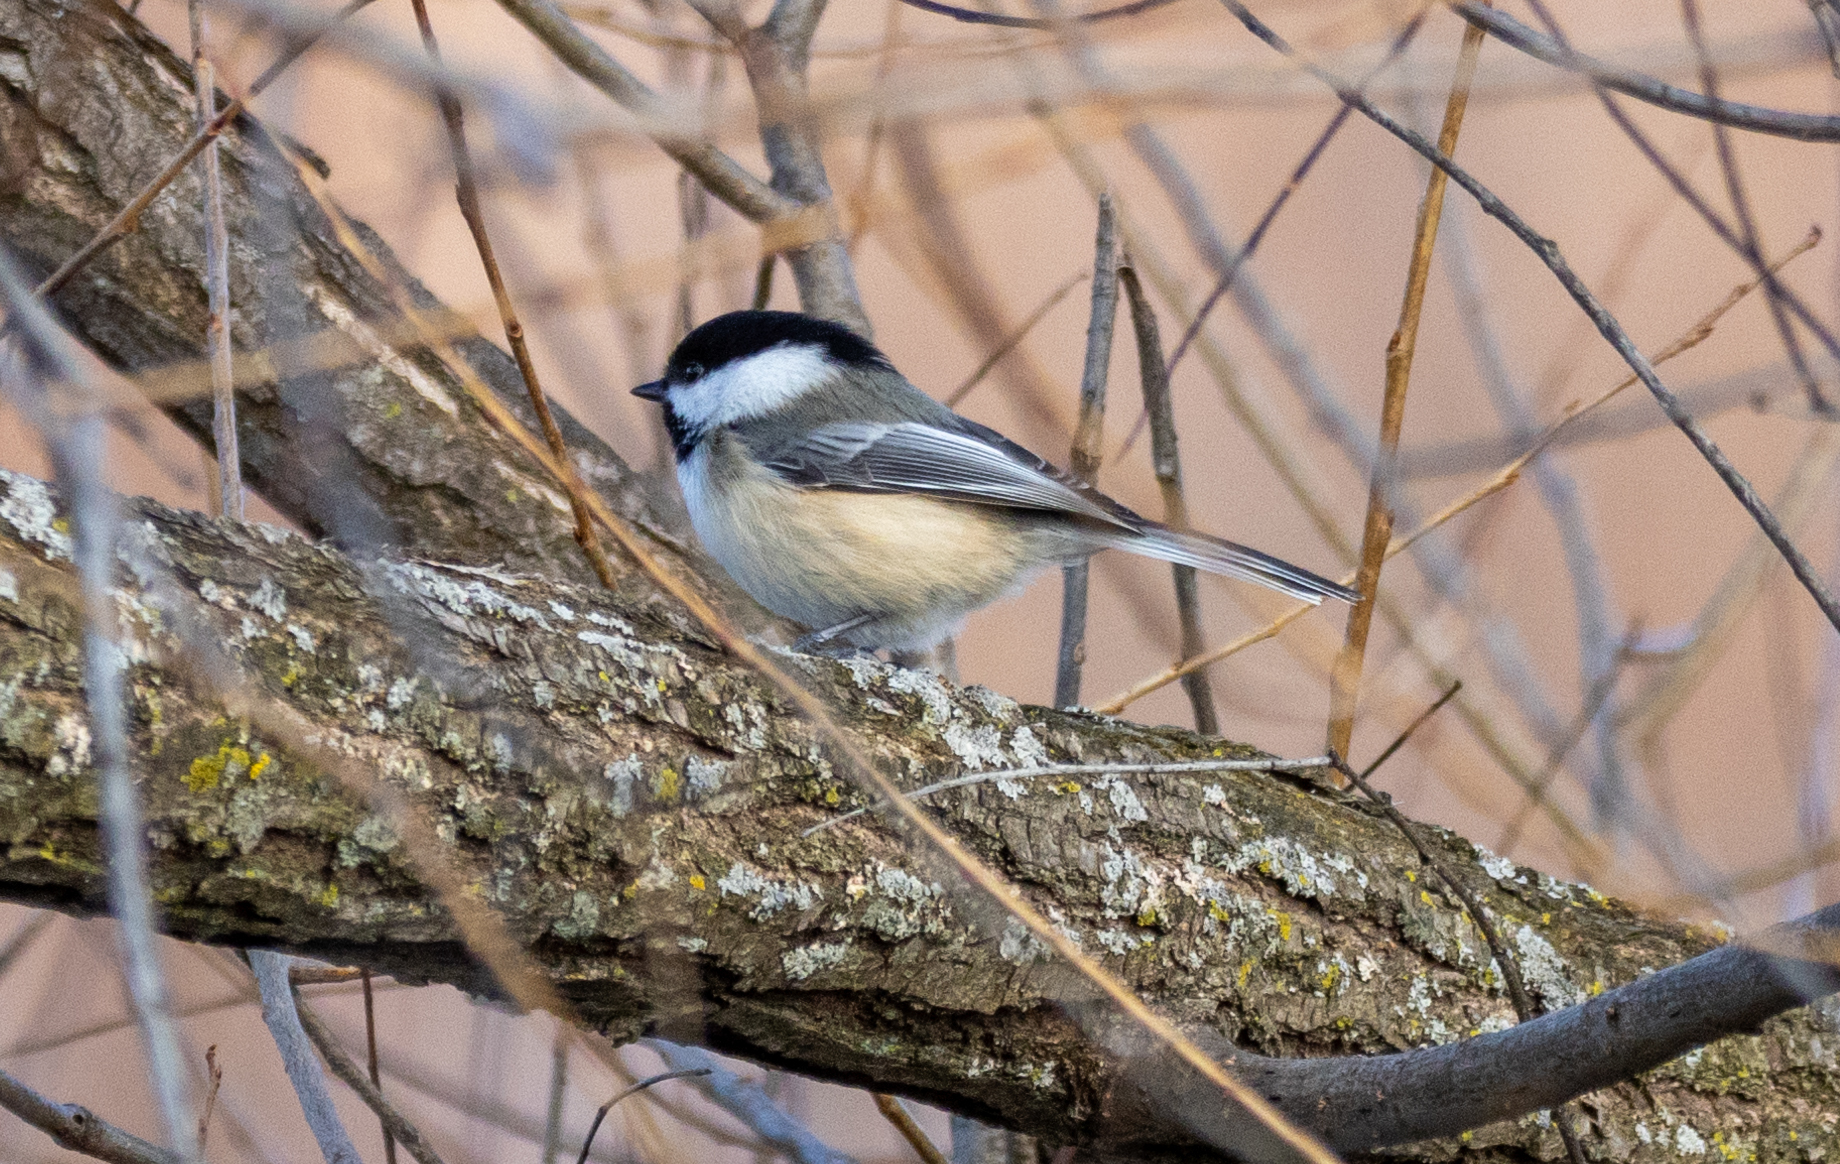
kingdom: Animalia
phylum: Chordata
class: Aves
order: Passeriformes
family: Paridae
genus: Poecile
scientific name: Poecile atricapillus
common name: Black-capped chickadee
